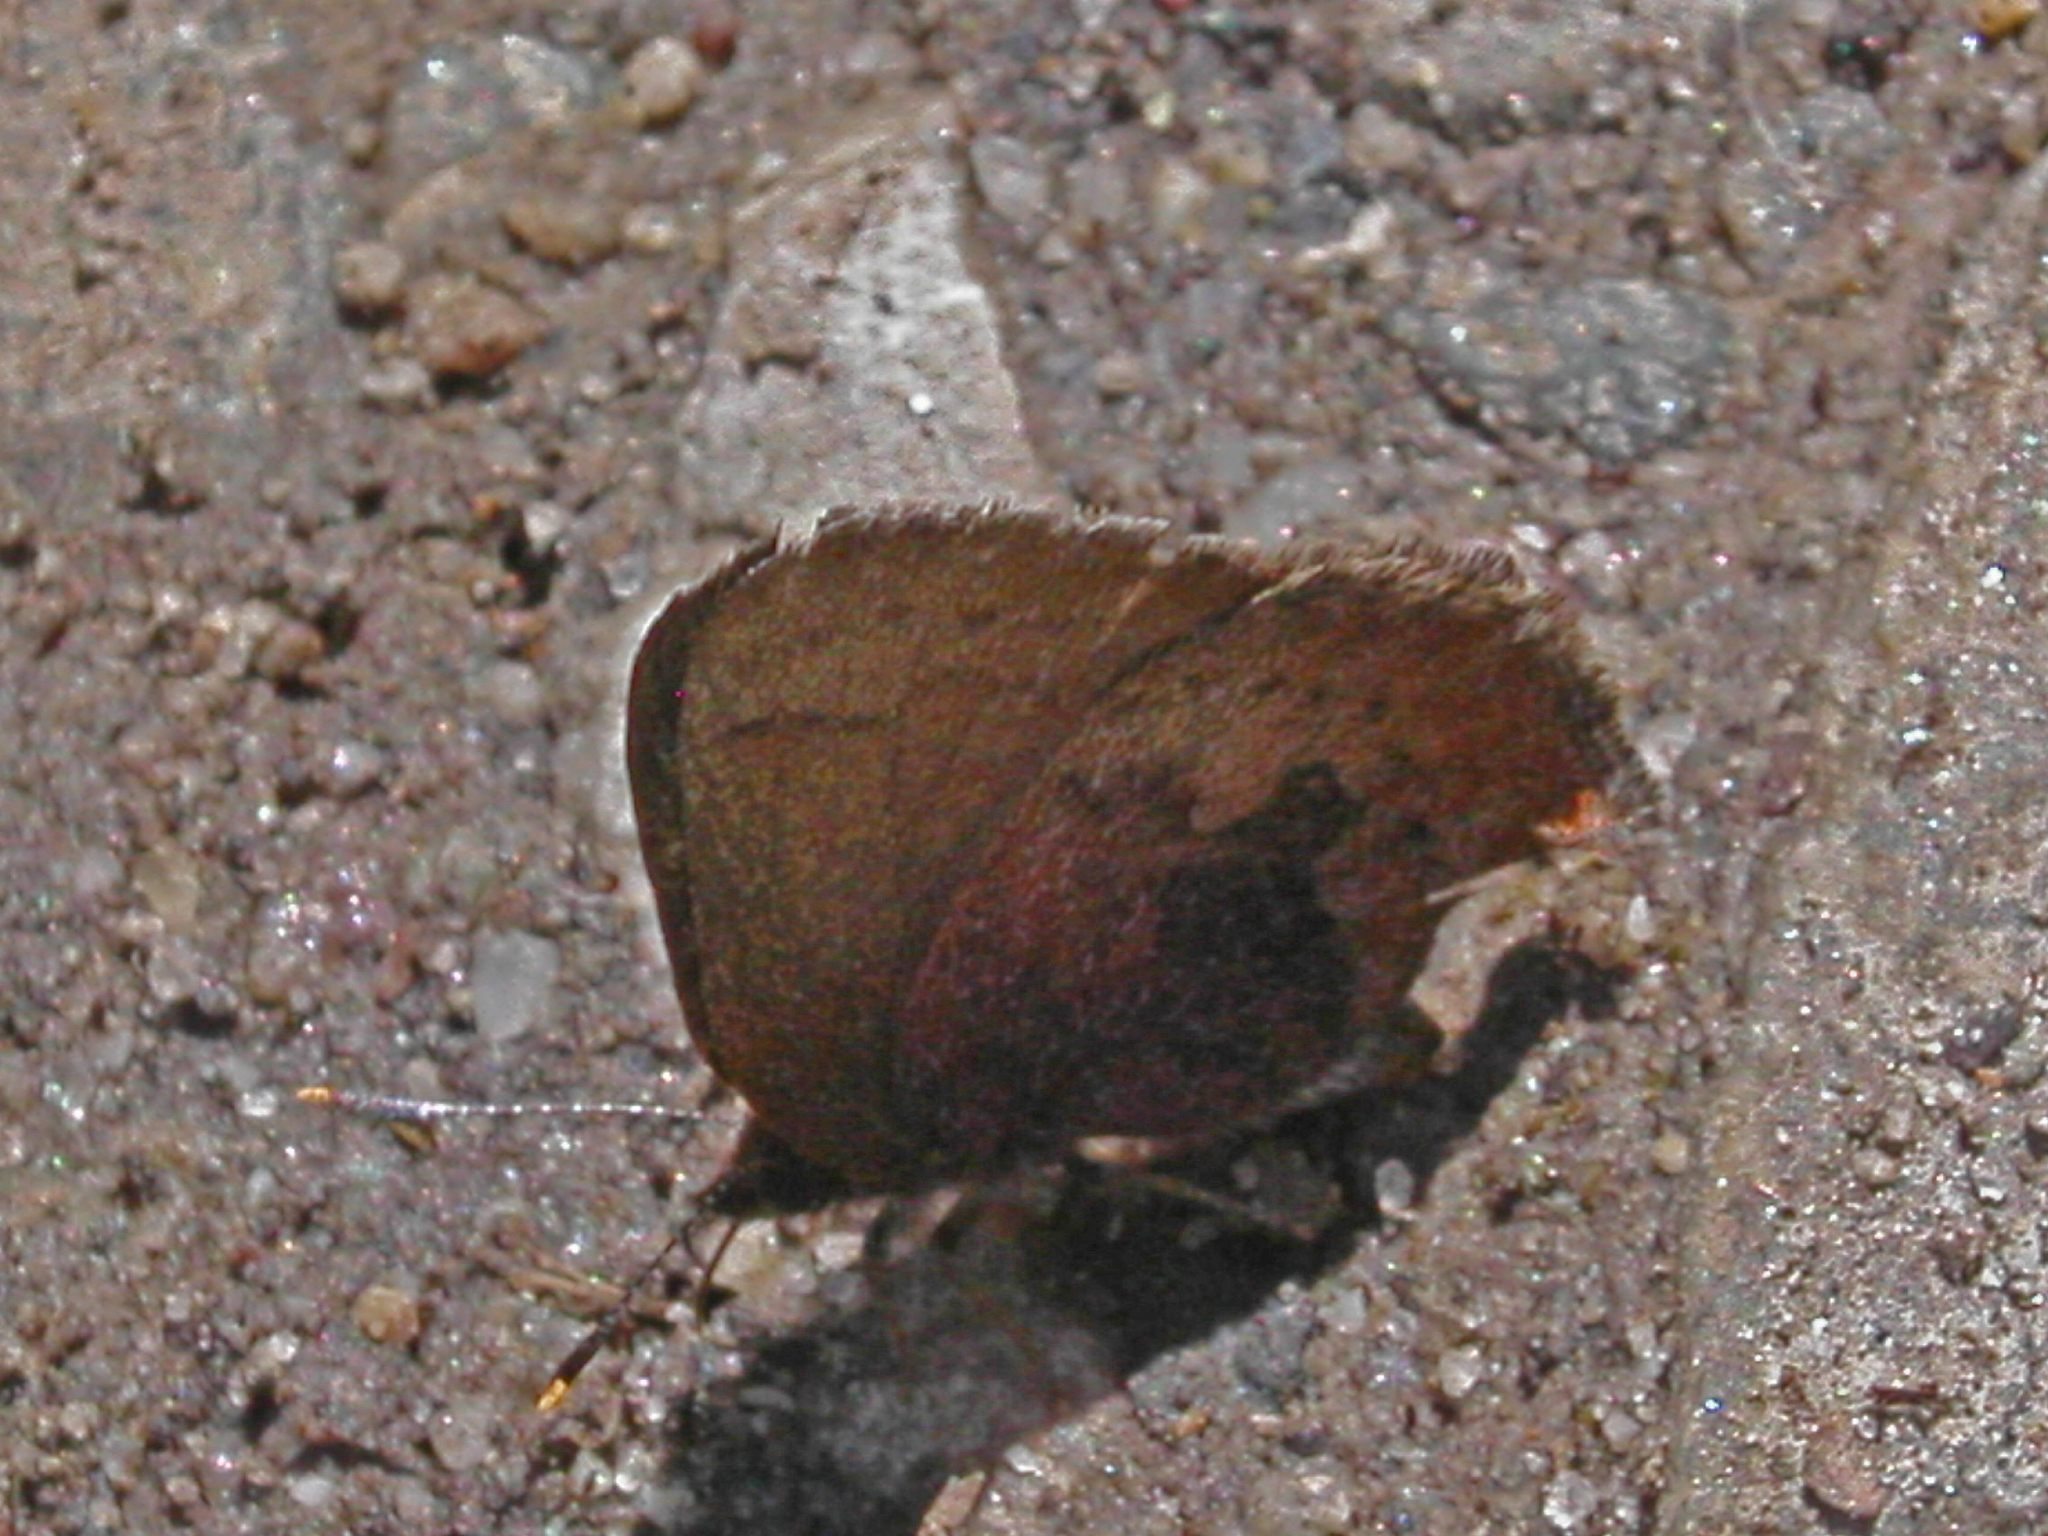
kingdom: Animalia
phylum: Arthropoda
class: Insecta
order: Lepidoptera
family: Lycaenidae
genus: Incisalia
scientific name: Incisalia irioides
